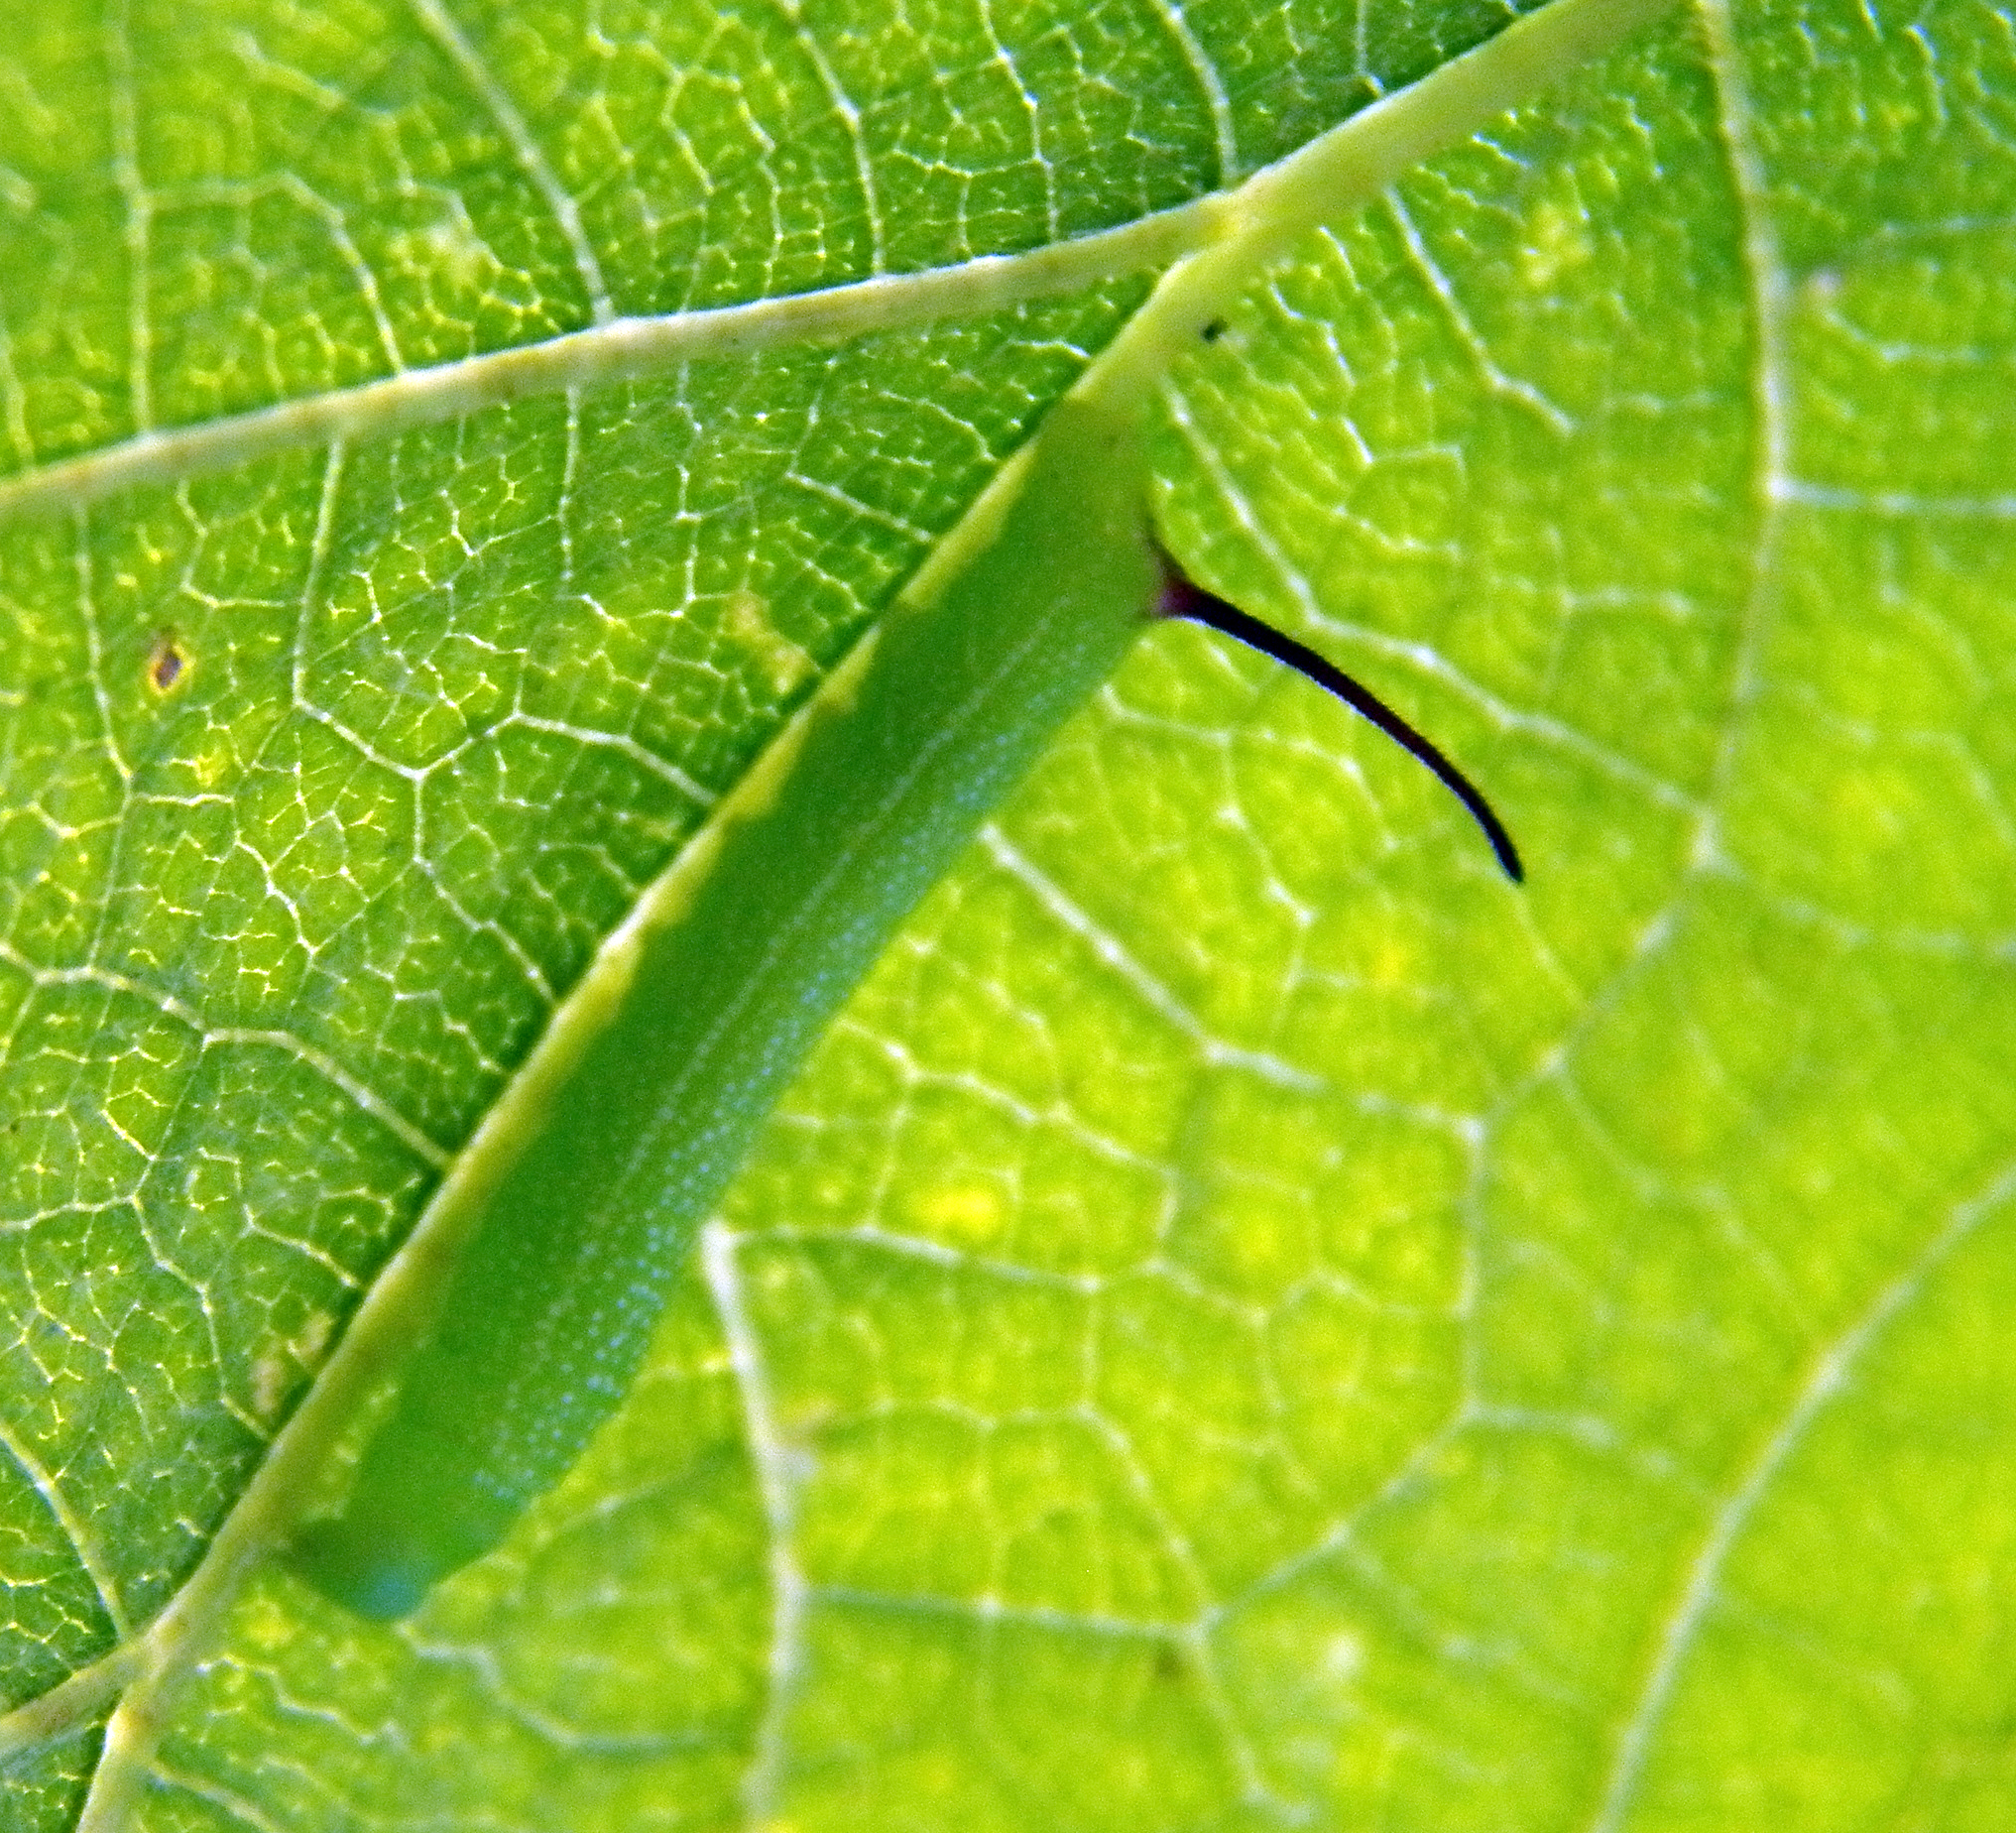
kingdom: Animalia
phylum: Arthropoda
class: Insecta
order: Lepidoptera
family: Sphingidae
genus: Eumorpha
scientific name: Eumorpha achemon
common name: Achemon sphinx
